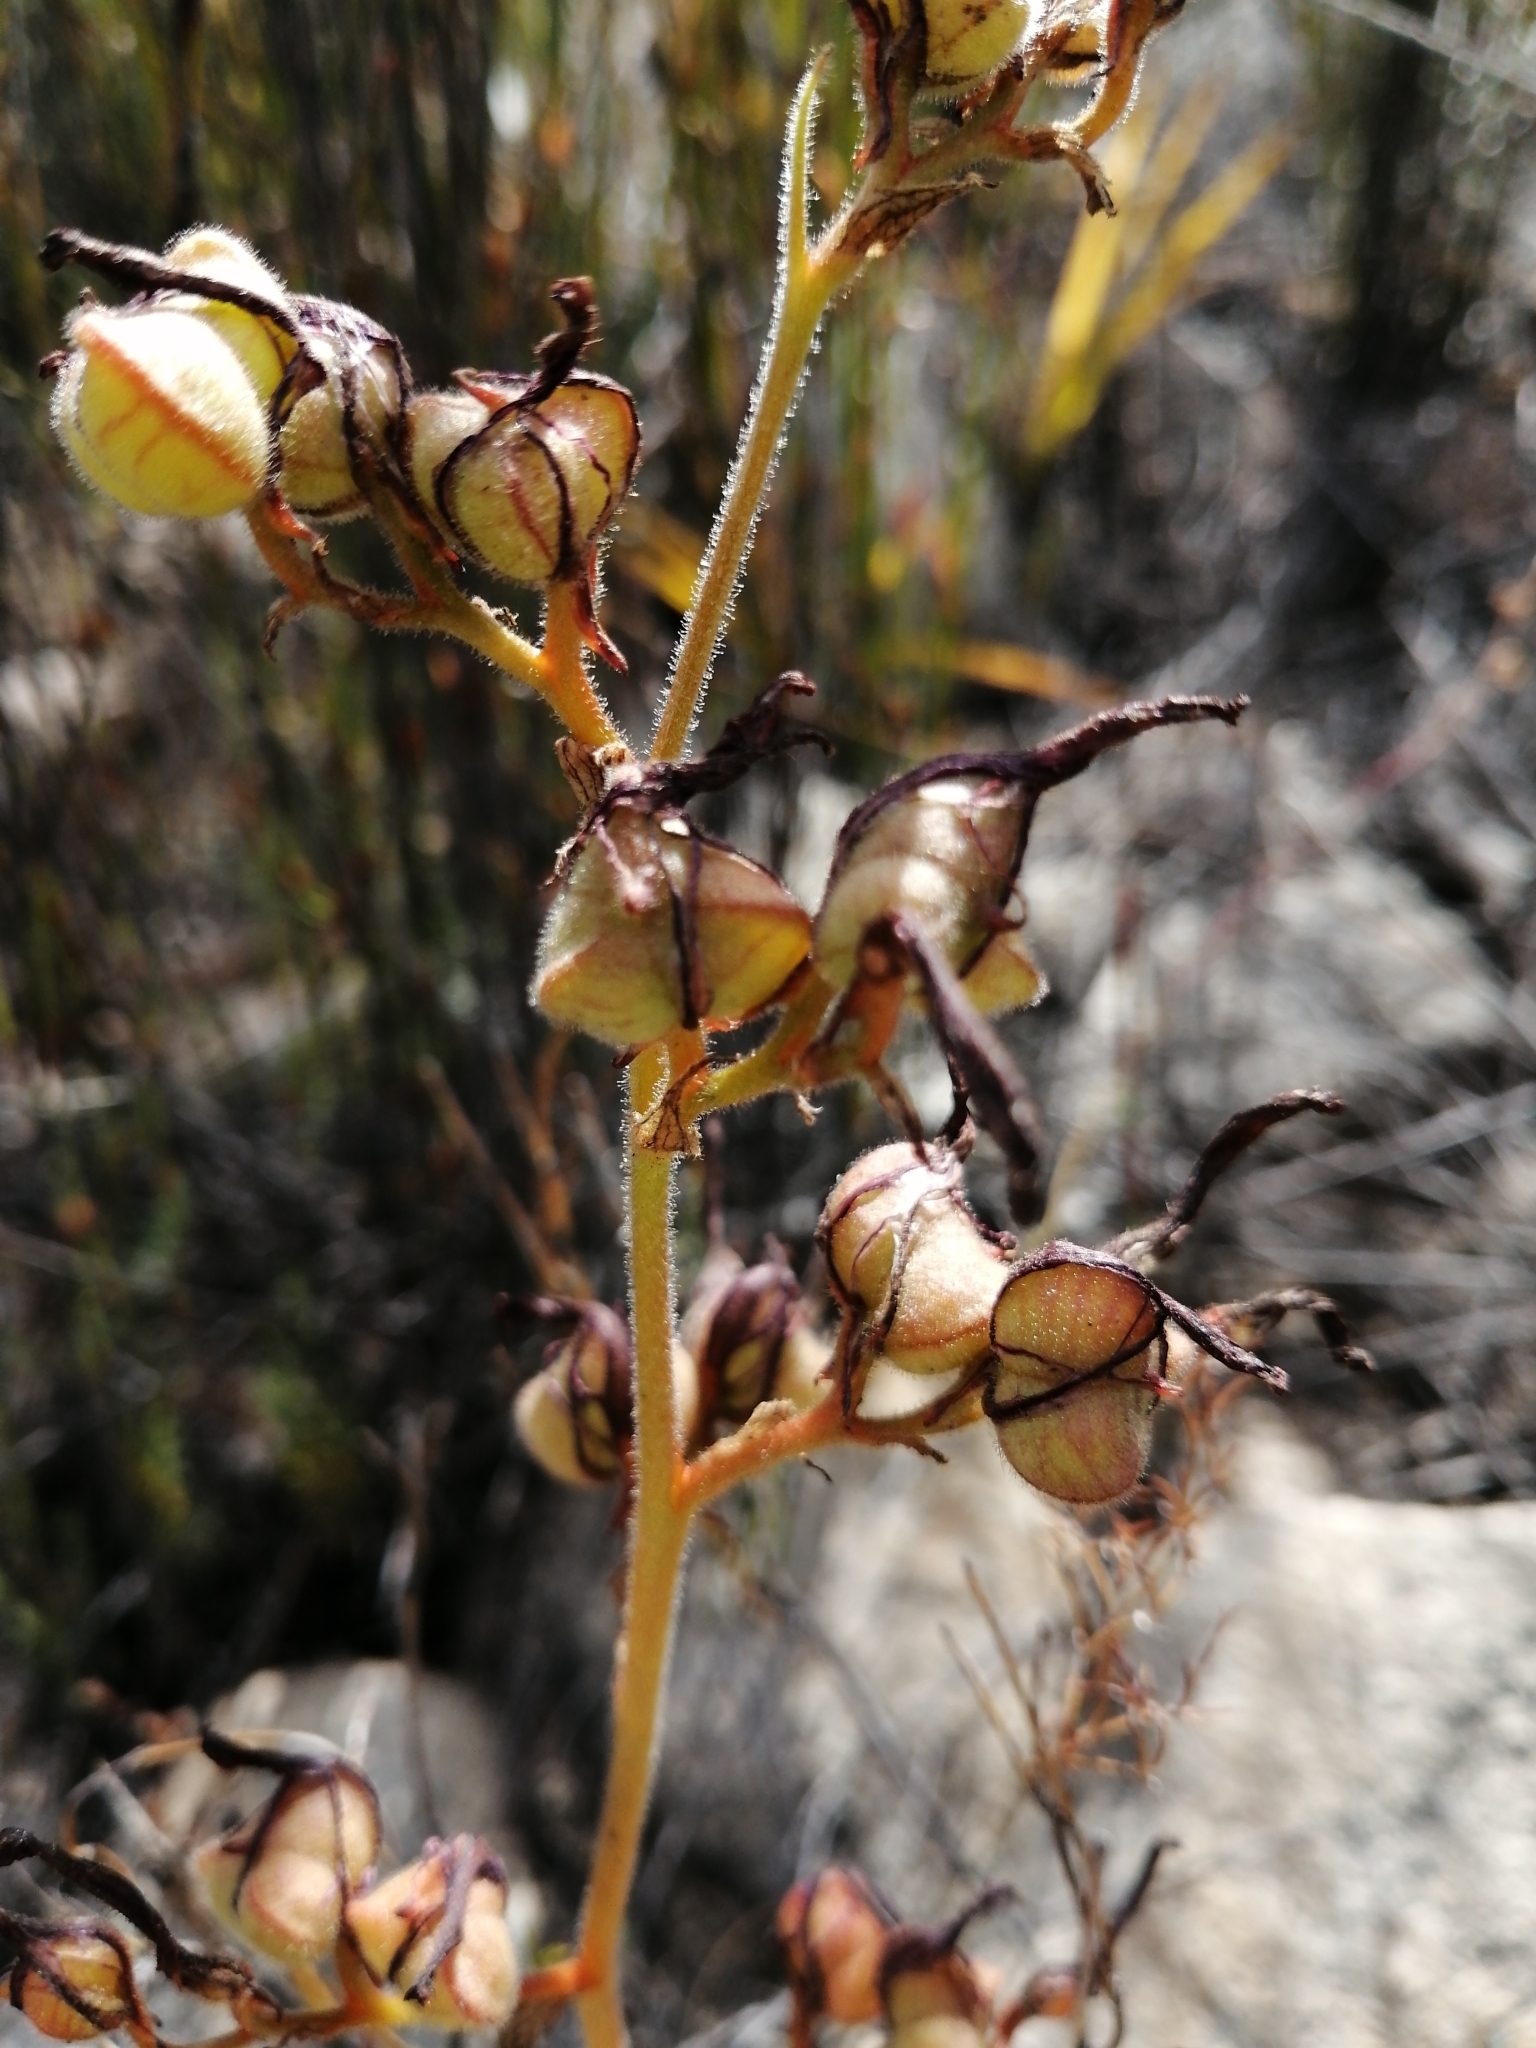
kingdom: Plantae
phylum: Tracheophyta
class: Liliopsida
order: Commelinales
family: Haemodoraceae
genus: Wachendorfia
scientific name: Wachendorfia paniculata
